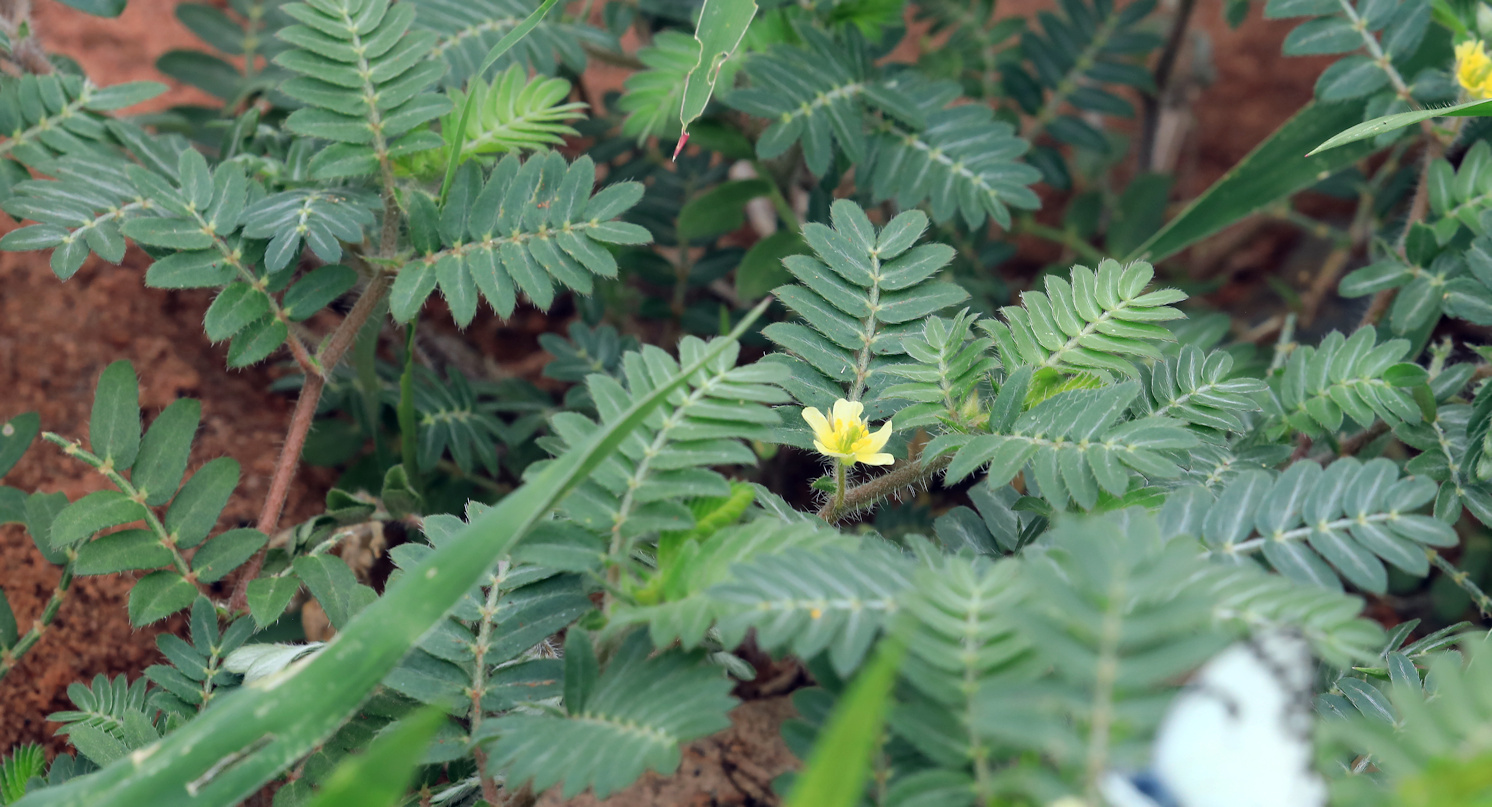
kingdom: Plantae
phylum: Tracheophyta
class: Magnoliopsida
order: Zygophyllales
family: Zygophyllaceae
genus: Tribulus
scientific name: Tribulus terrestris
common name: Puncturevine
